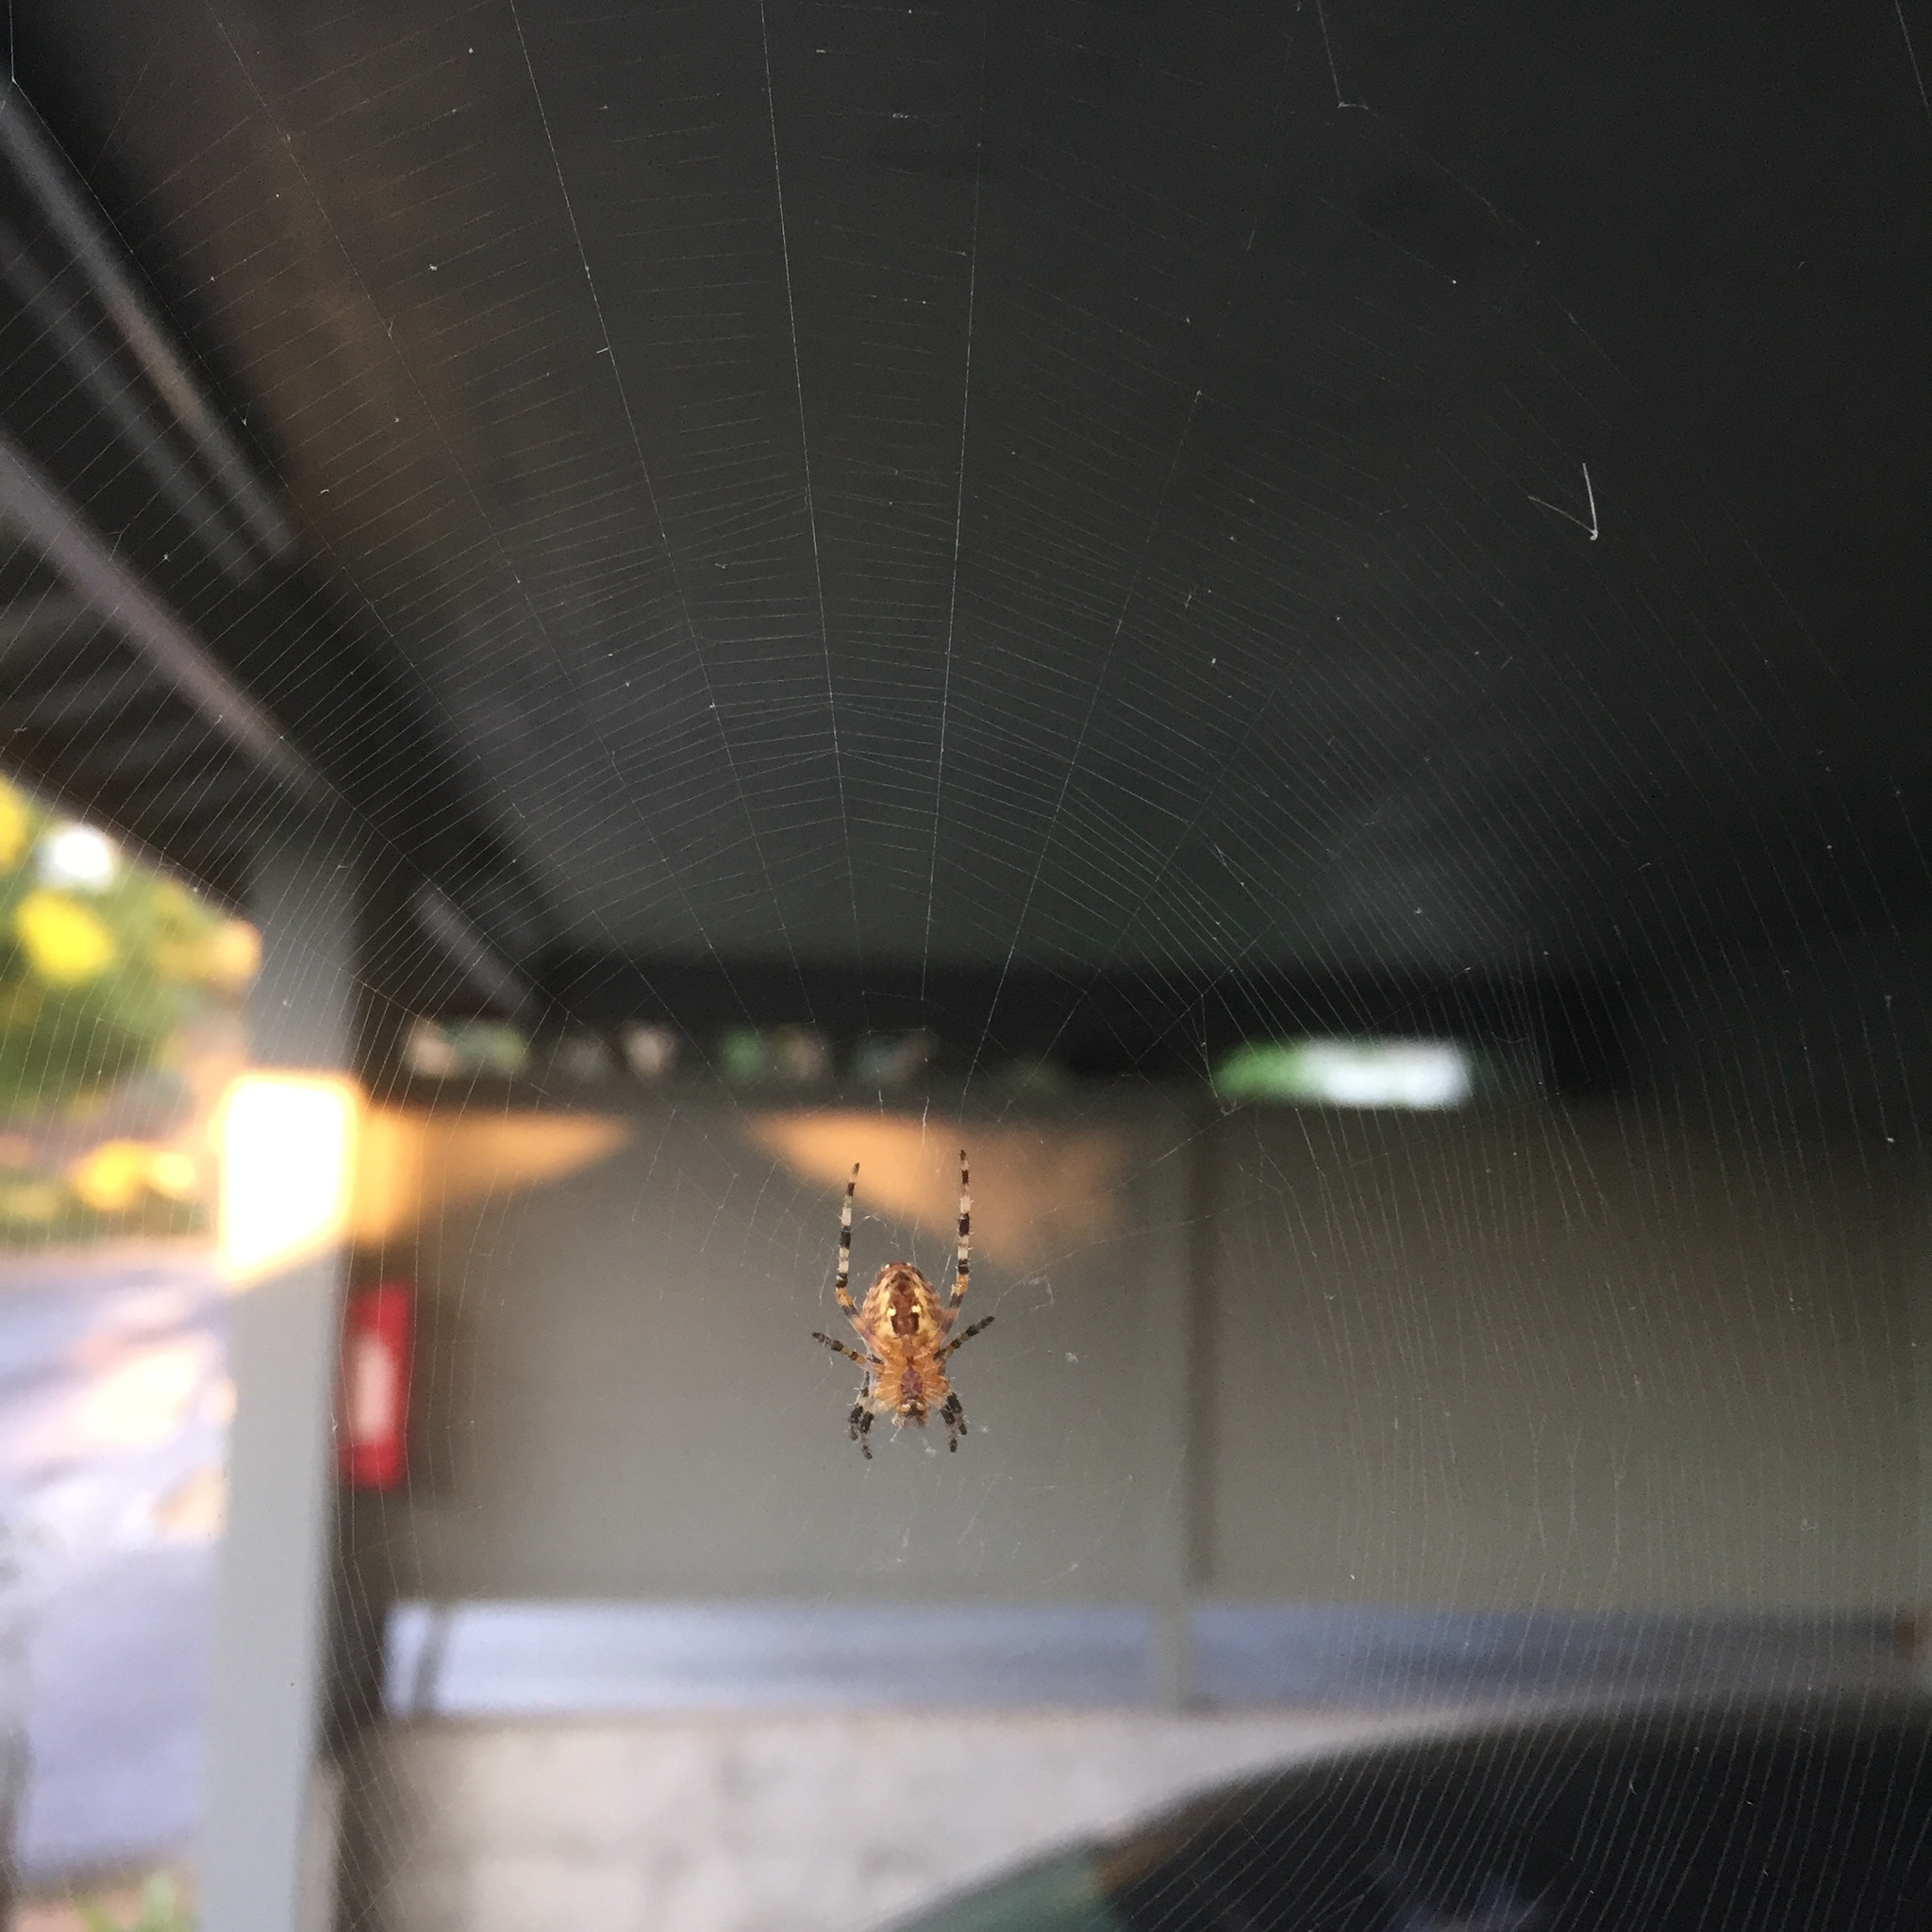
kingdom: Animalia
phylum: Arthropoda
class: Arachnida
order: Araneae
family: Araneidae
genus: Araneus
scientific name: Araneus diadematus
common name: Cross orbweaver
